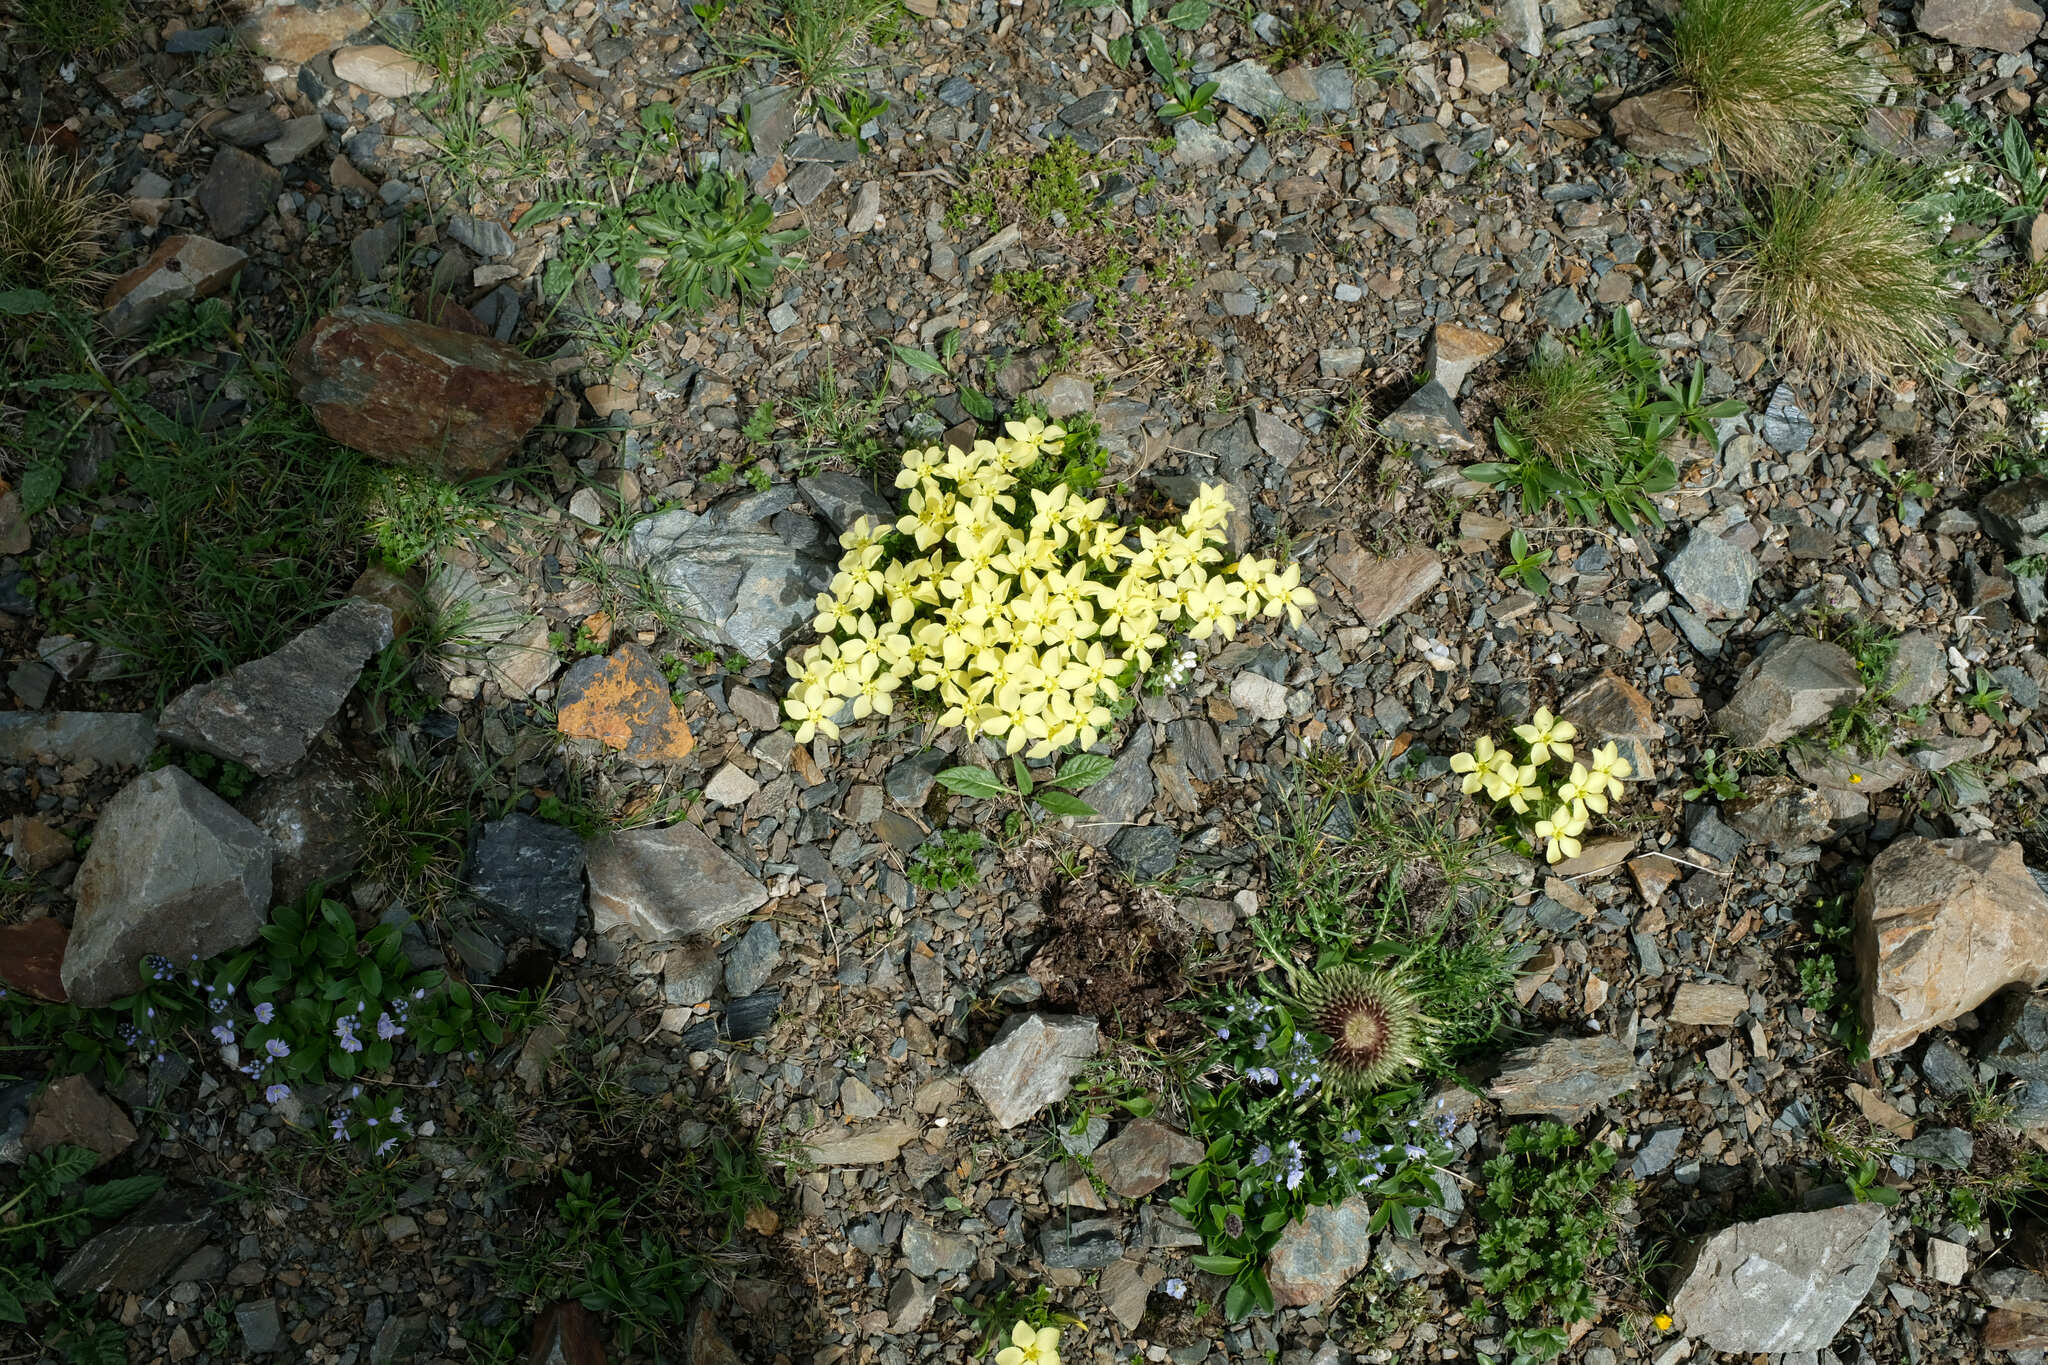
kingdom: Plantae
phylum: Tracheophyta
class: Magnoliopsida
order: Gentianales
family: Gentianaceae
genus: Gentiana
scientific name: Gentiana verna
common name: Spring gentian
